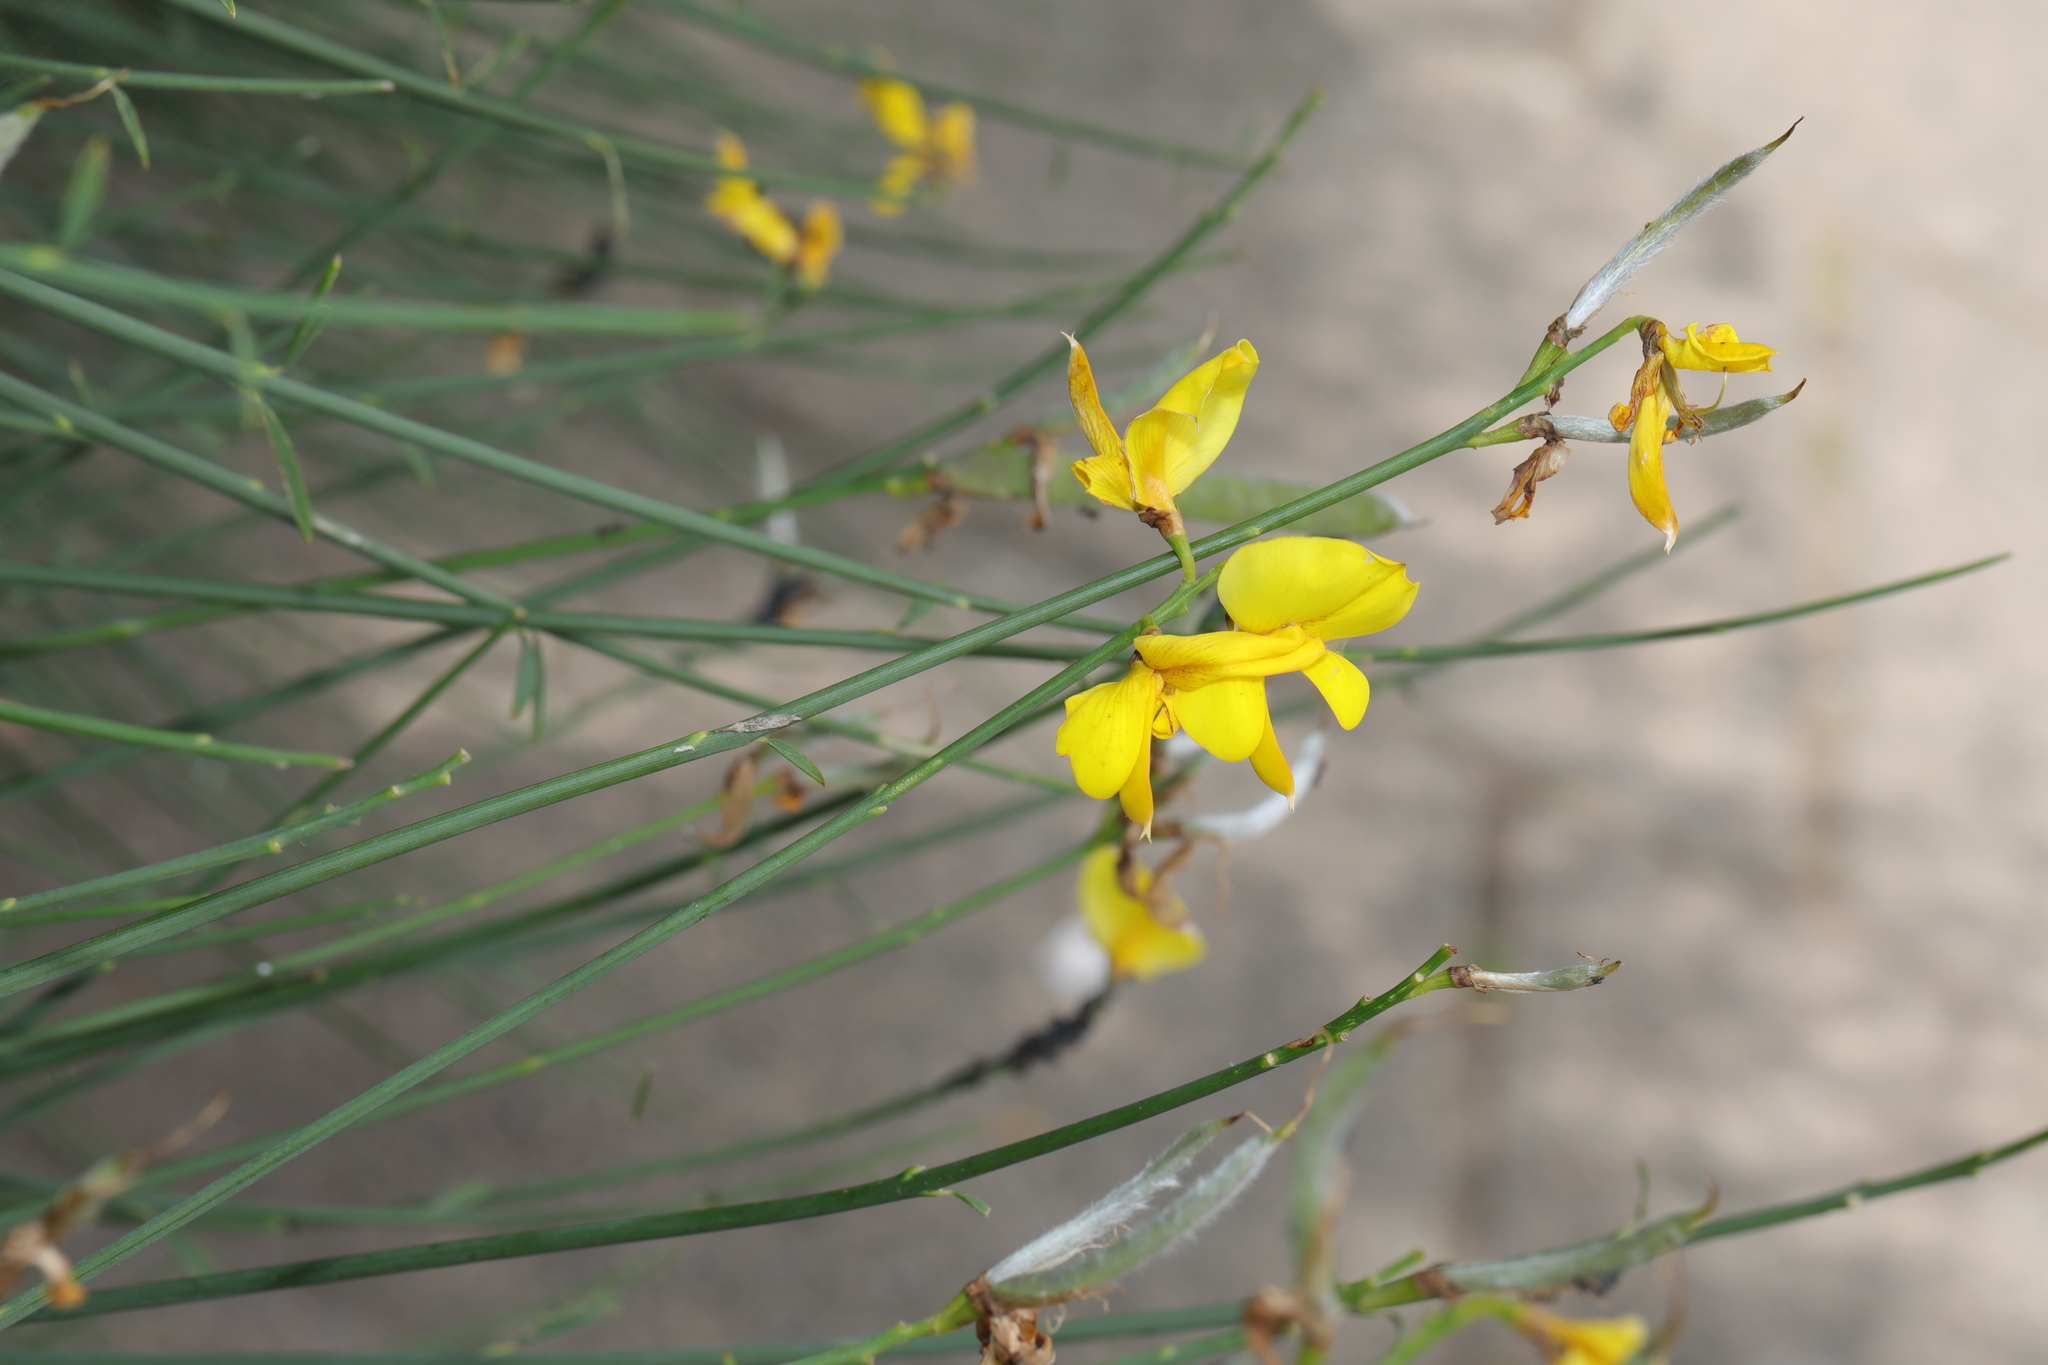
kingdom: Plantae
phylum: Tracheophyta
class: Magnoliopsida
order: Fabales
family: Fabaceae
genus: Spartium
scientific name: Spartium junceum
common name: Spanish broom
